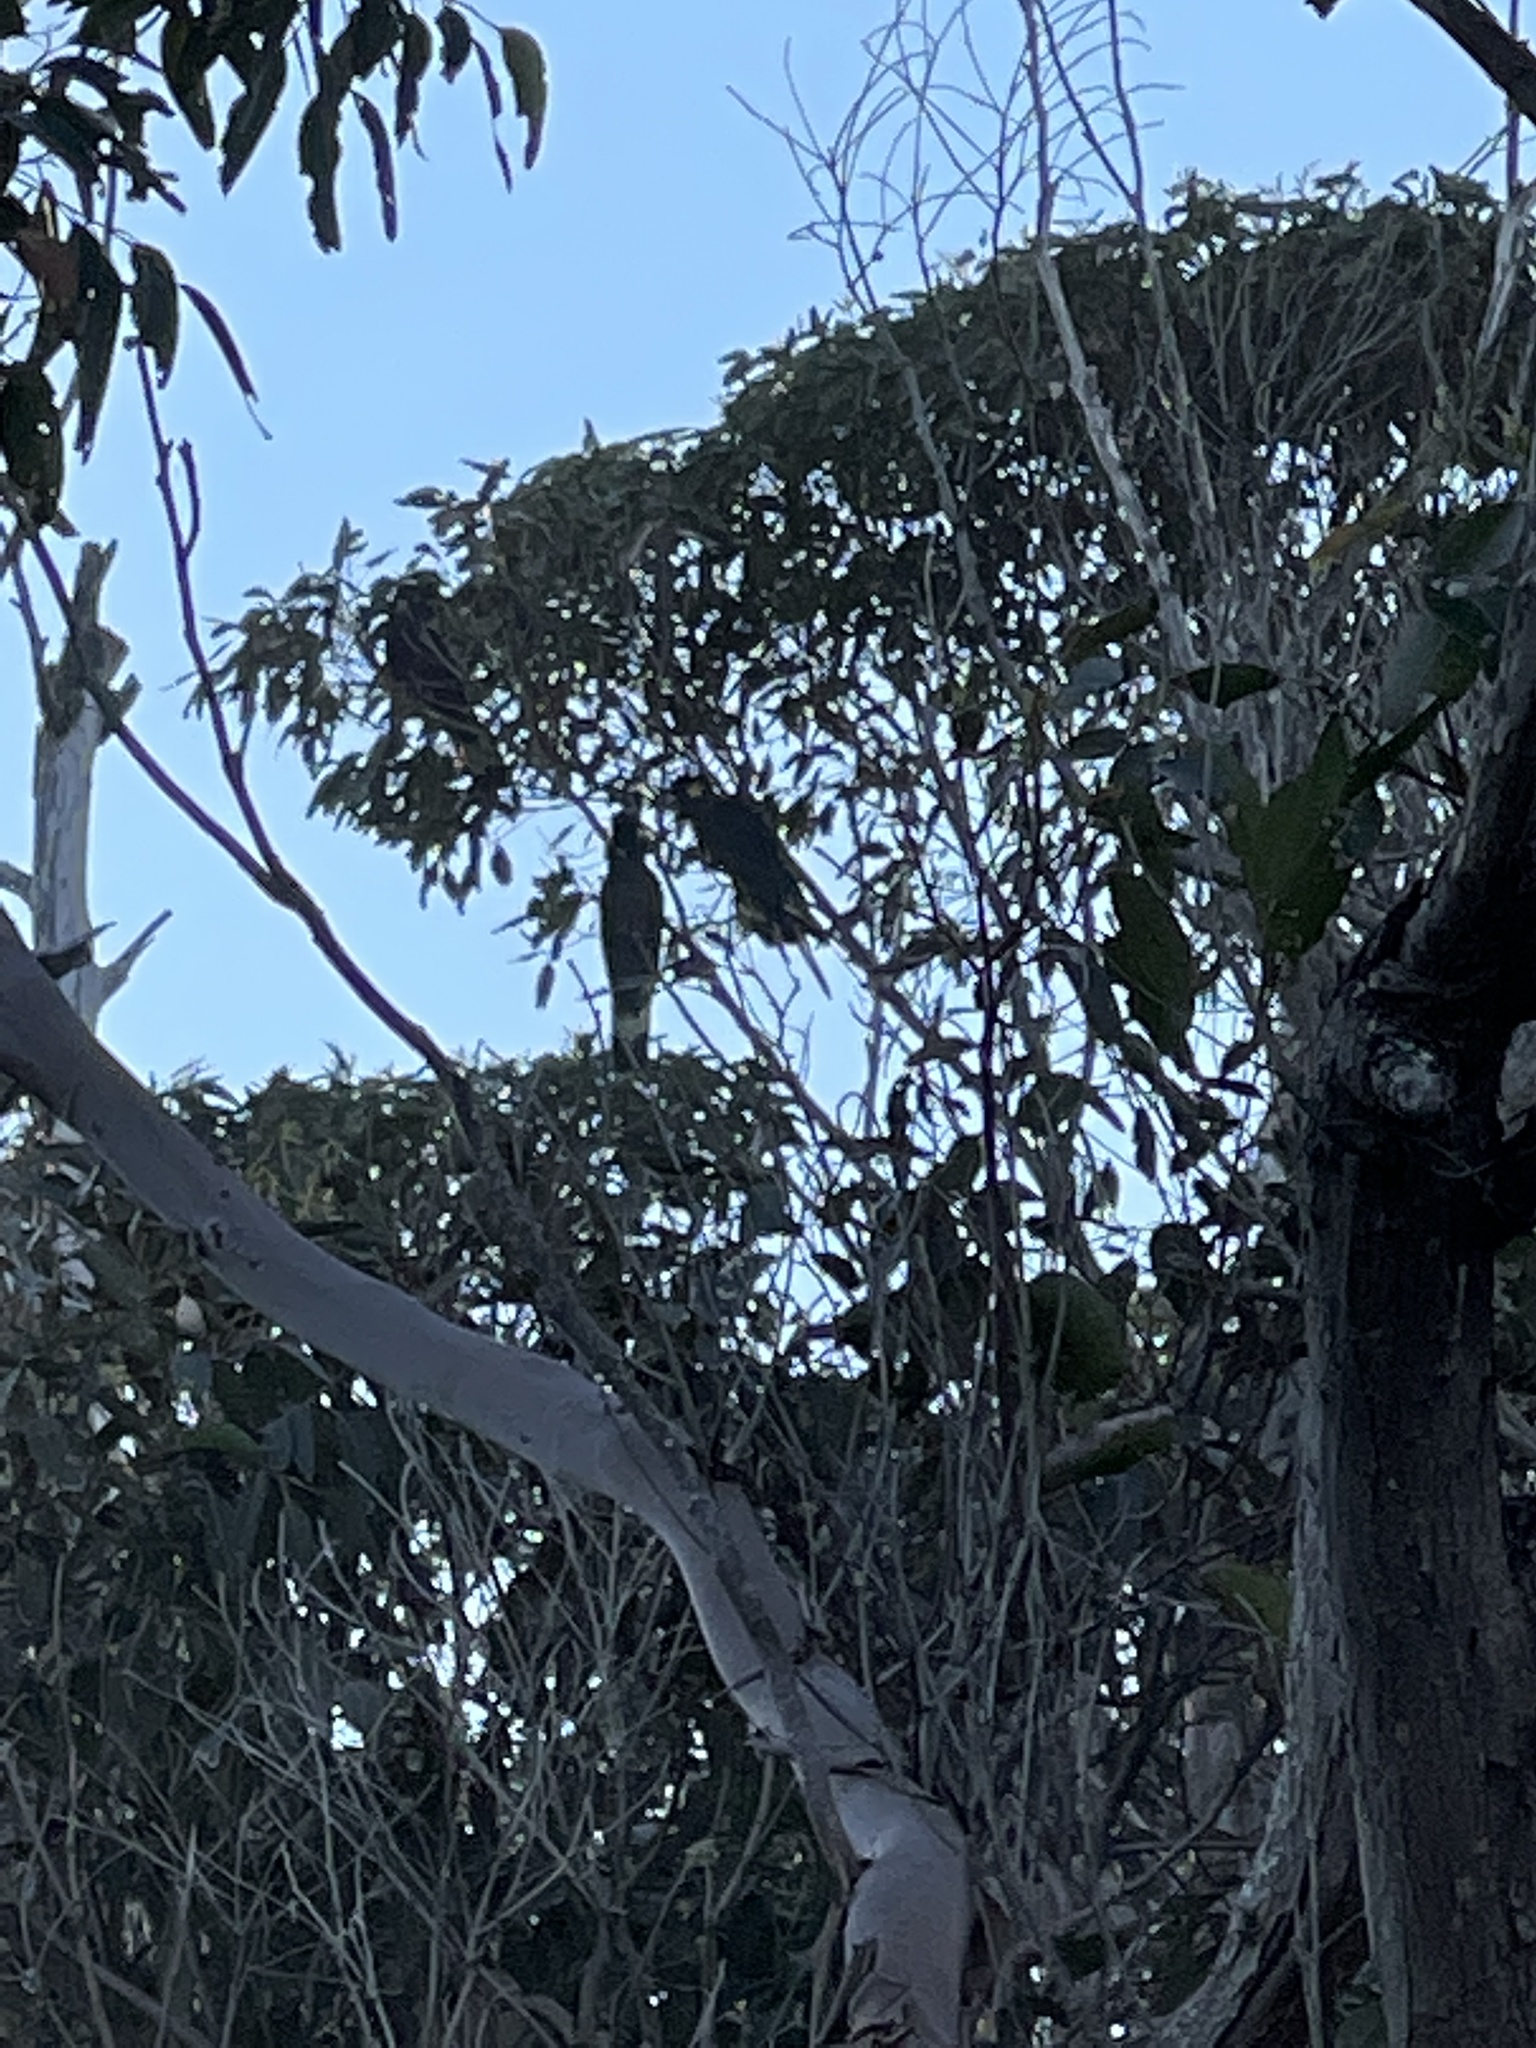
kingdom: Animalia
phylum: Chordata
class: Aves
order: Psittaciformes
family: Cacatuidae
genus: Zanda
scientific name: Zanda funerea
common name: Yellow-tailed black-cockatoo
